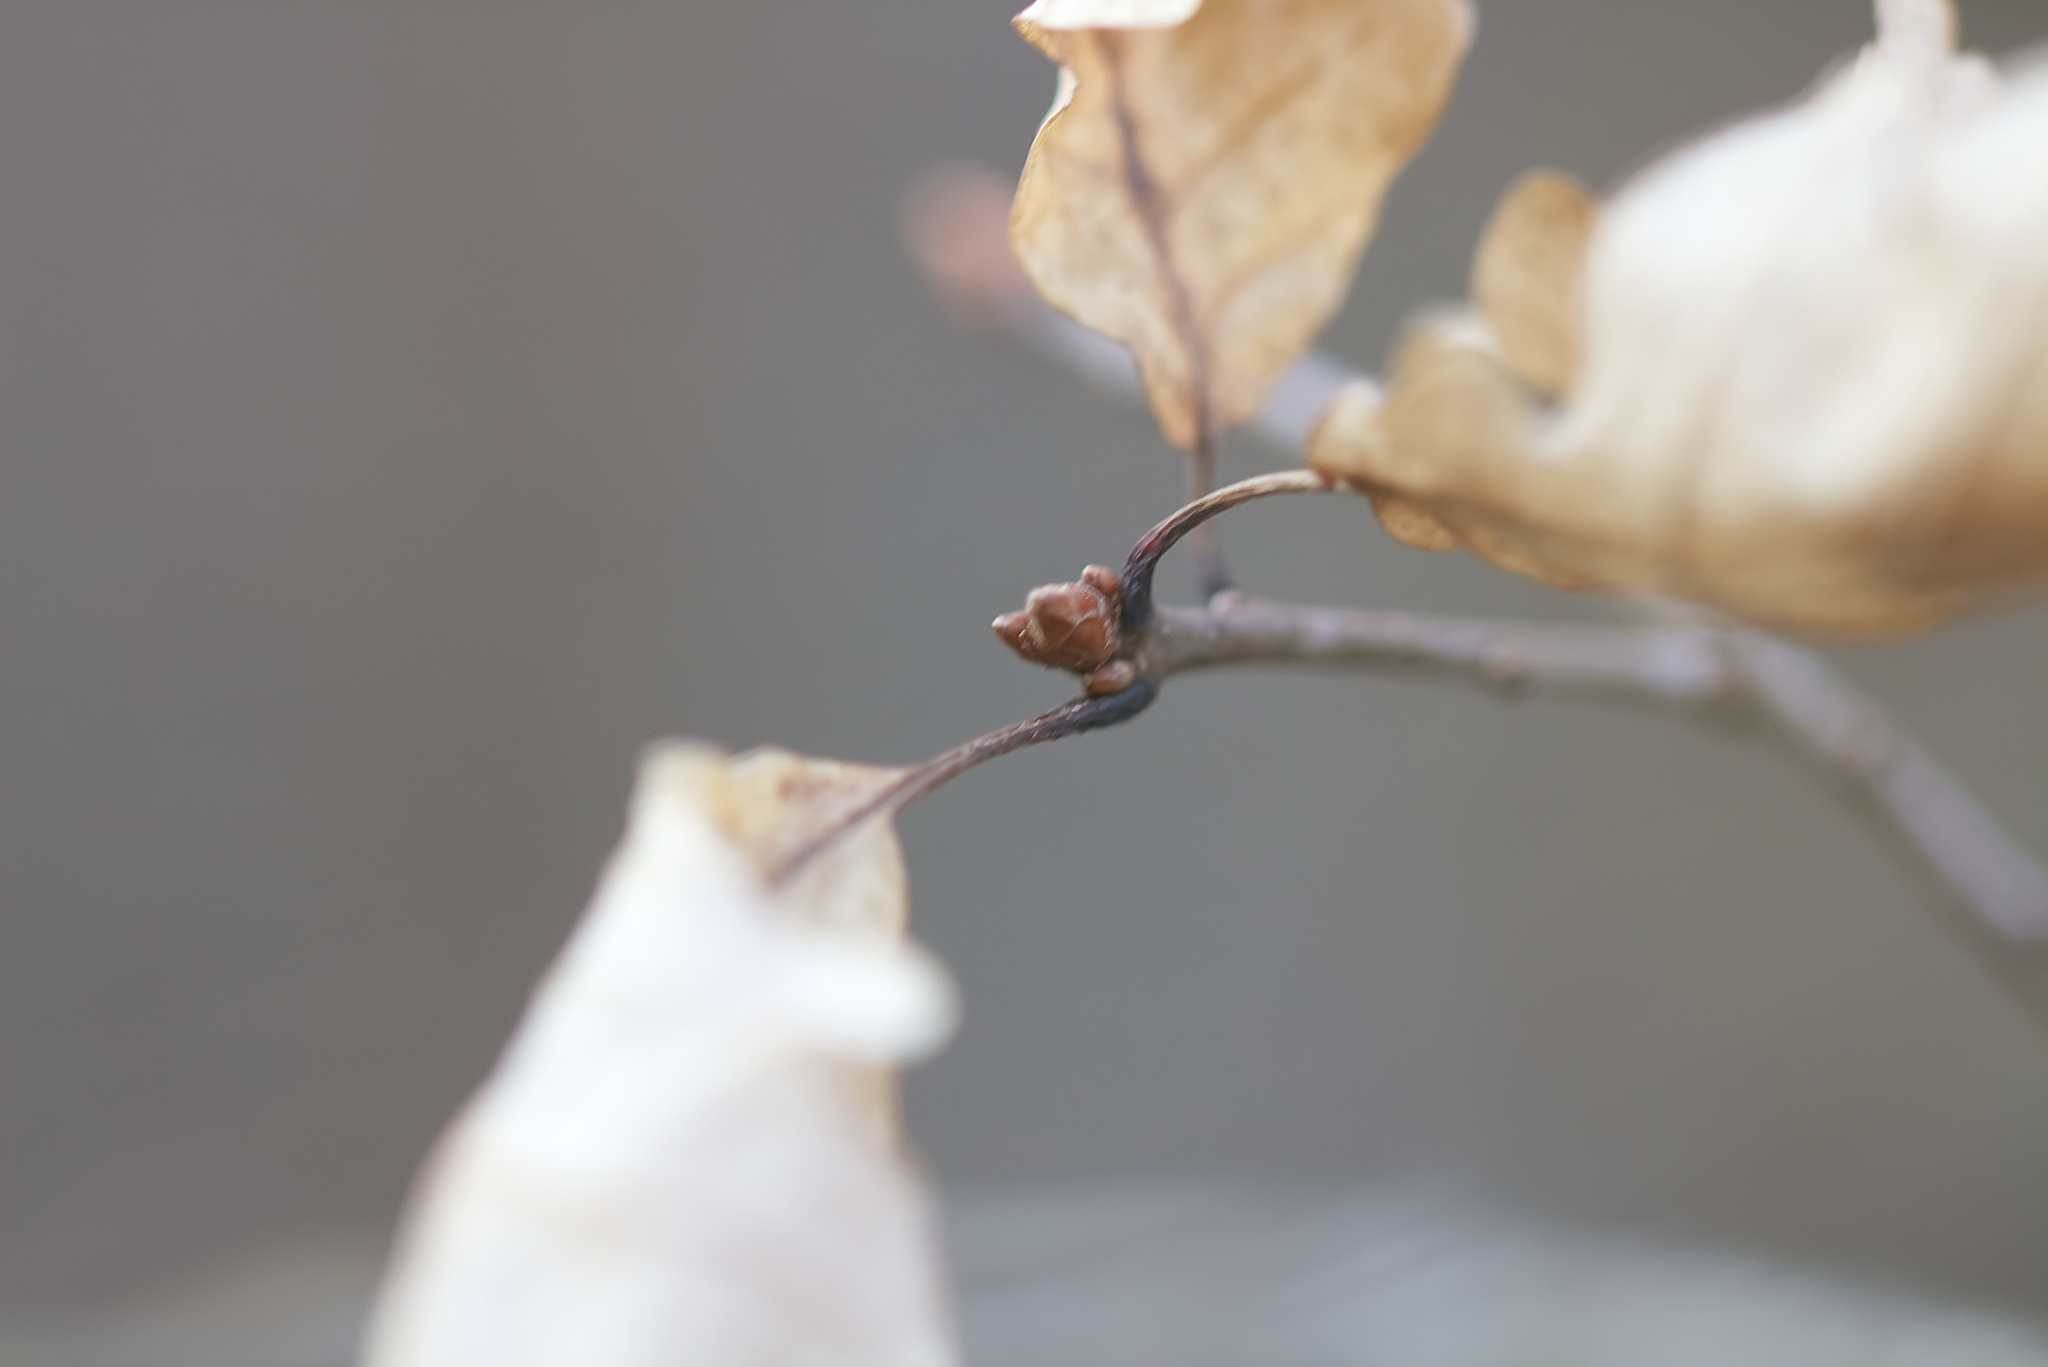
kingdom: Plantae
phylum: Tracheophyta
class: Magnoliopsida
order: Fagales
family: Fagaceae
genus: Quercus
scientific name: Quercus petraea
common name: Sessile oak
